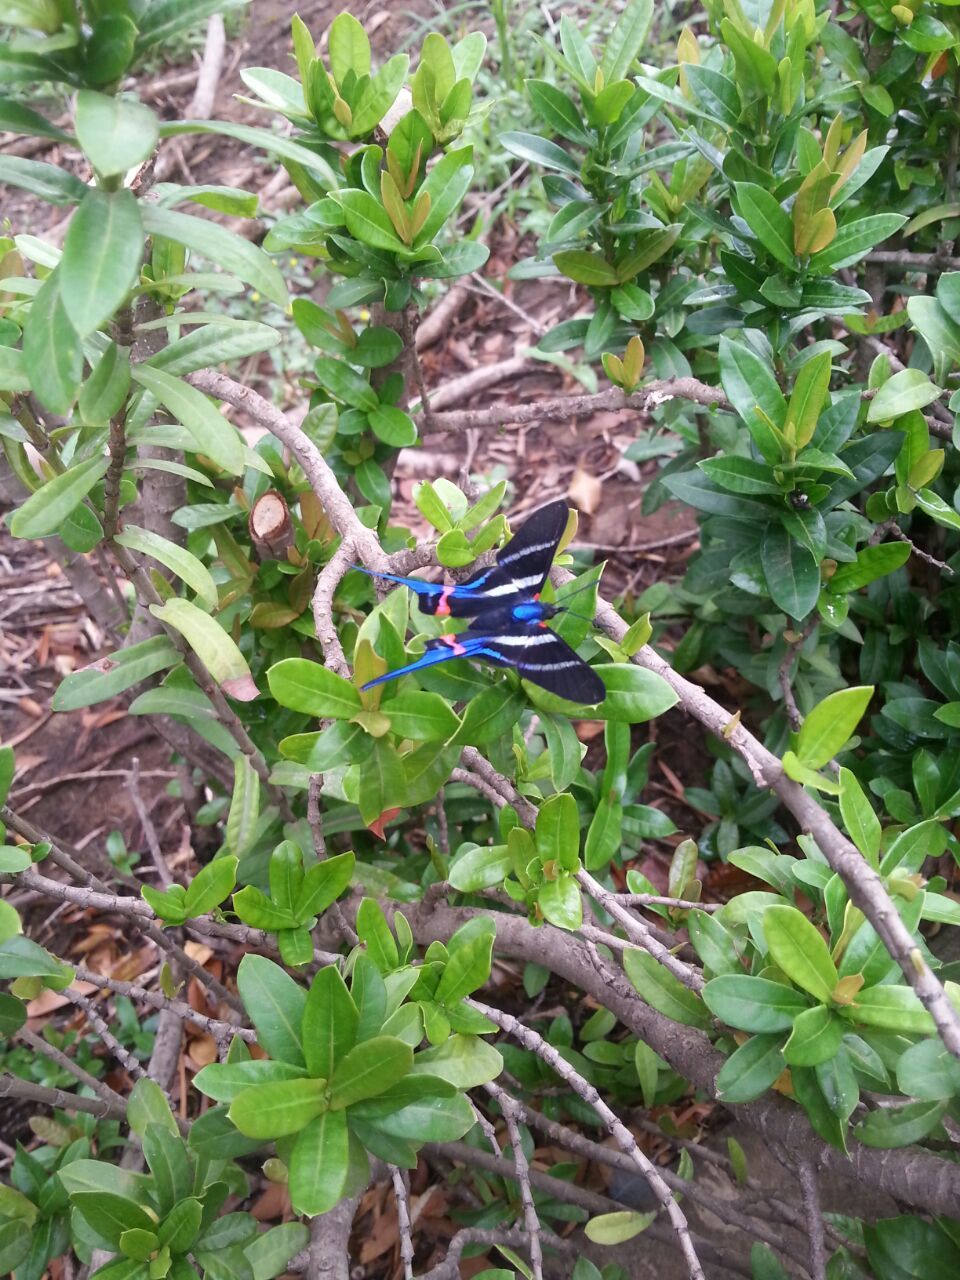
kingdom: Animalia
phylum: Arthropoda
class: Insecta
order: Lepidoptera
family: Riodinidae
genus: Rhetus
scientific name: Rhetus arcius
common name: Long-tailed metalmark
